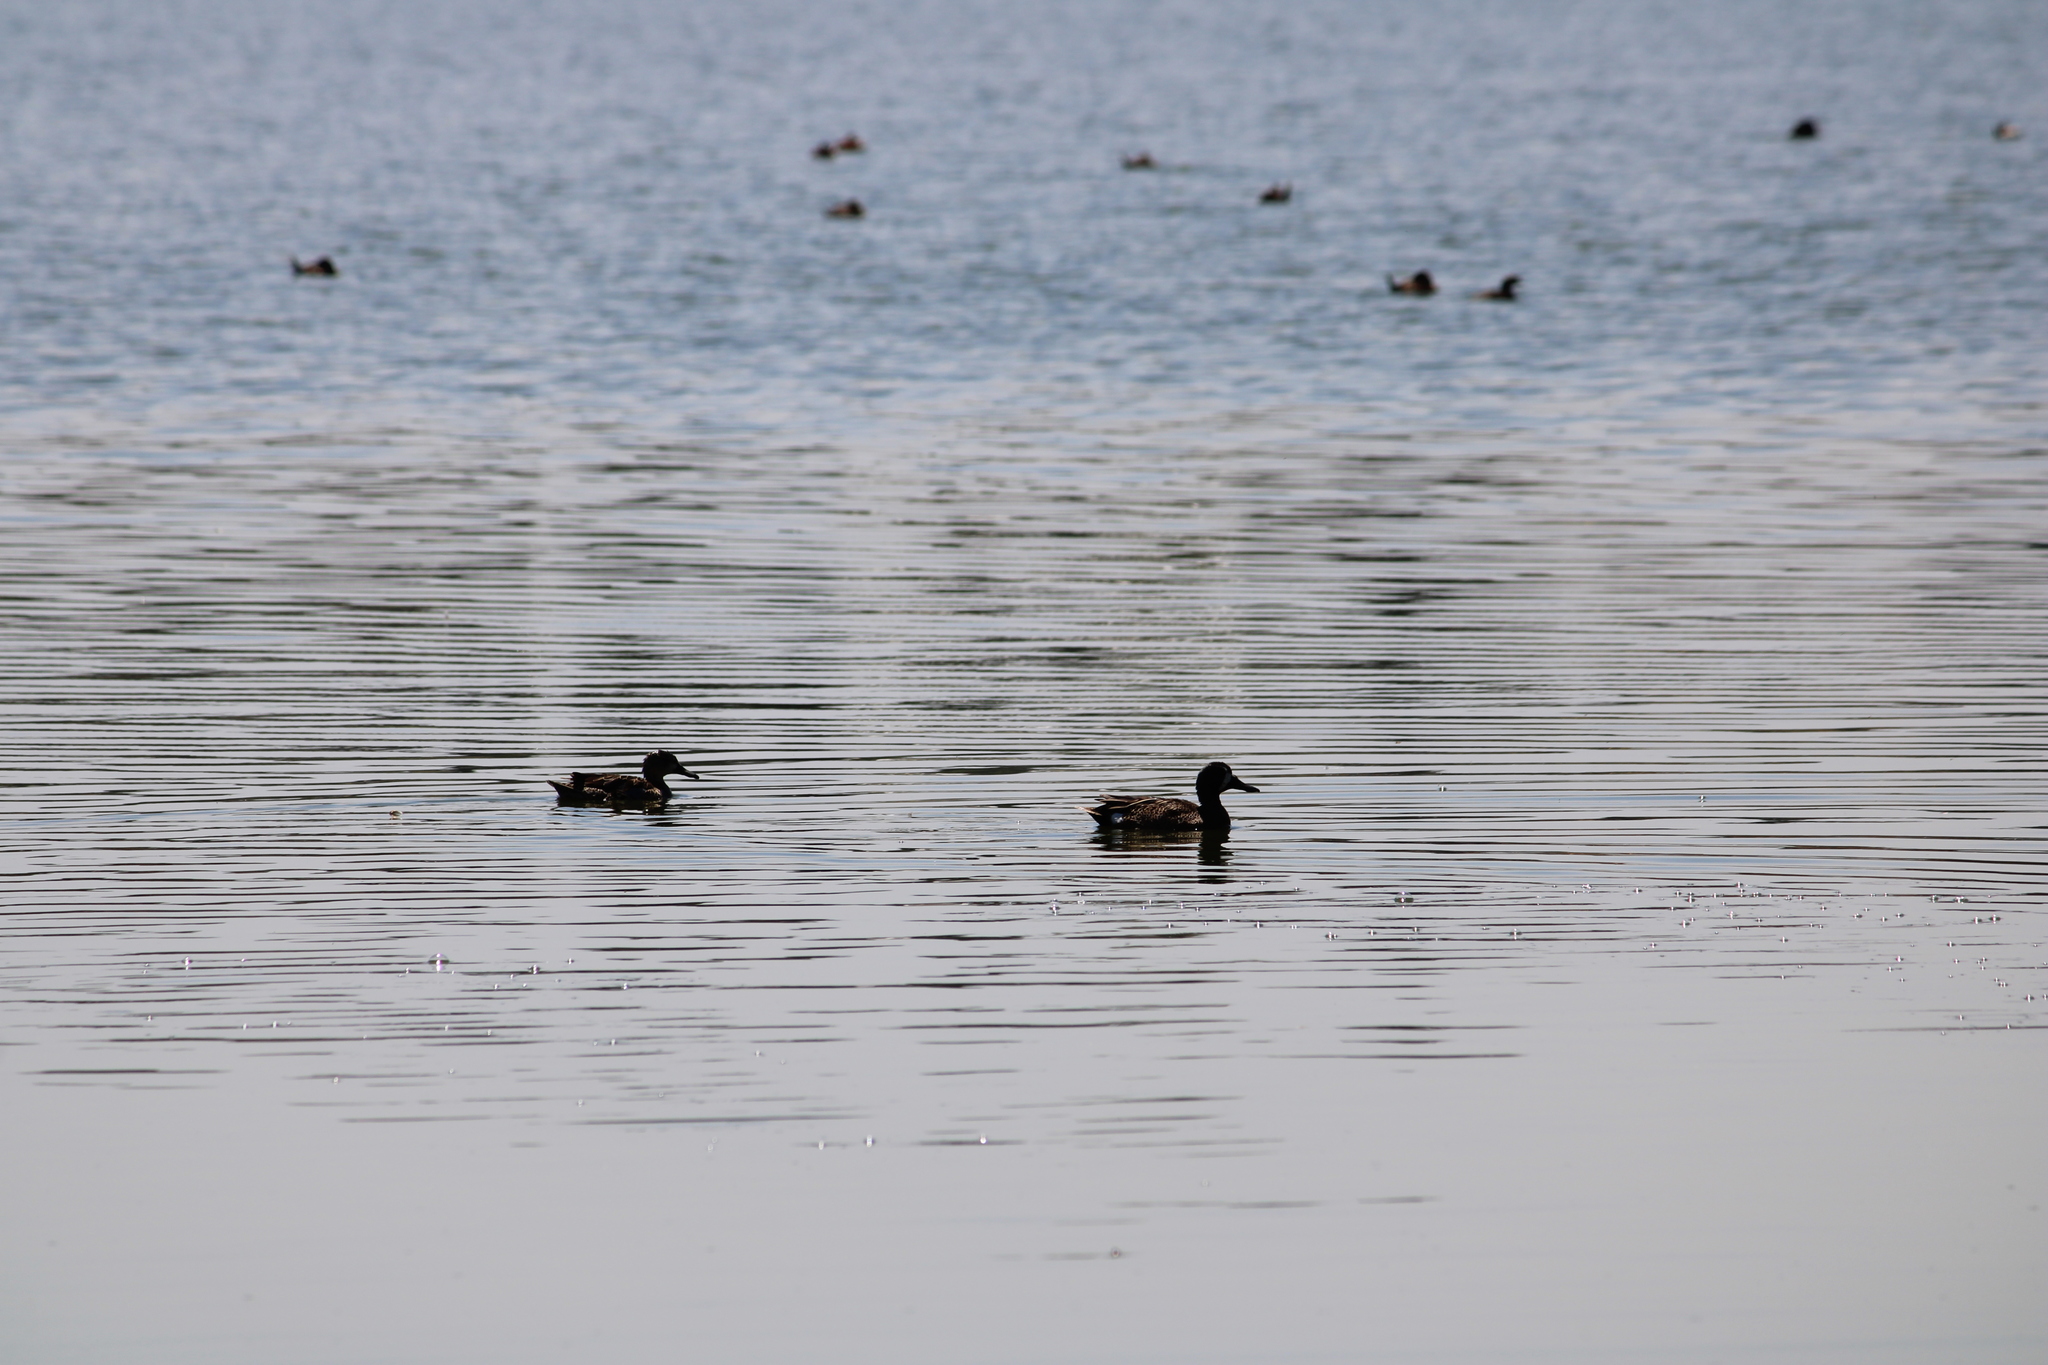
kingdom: Animalia
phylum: Chordata
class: Aves
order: Anseriformes
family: Anatidae
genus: Spatula
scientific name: Spatula clypeata
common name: Northern shoveler
